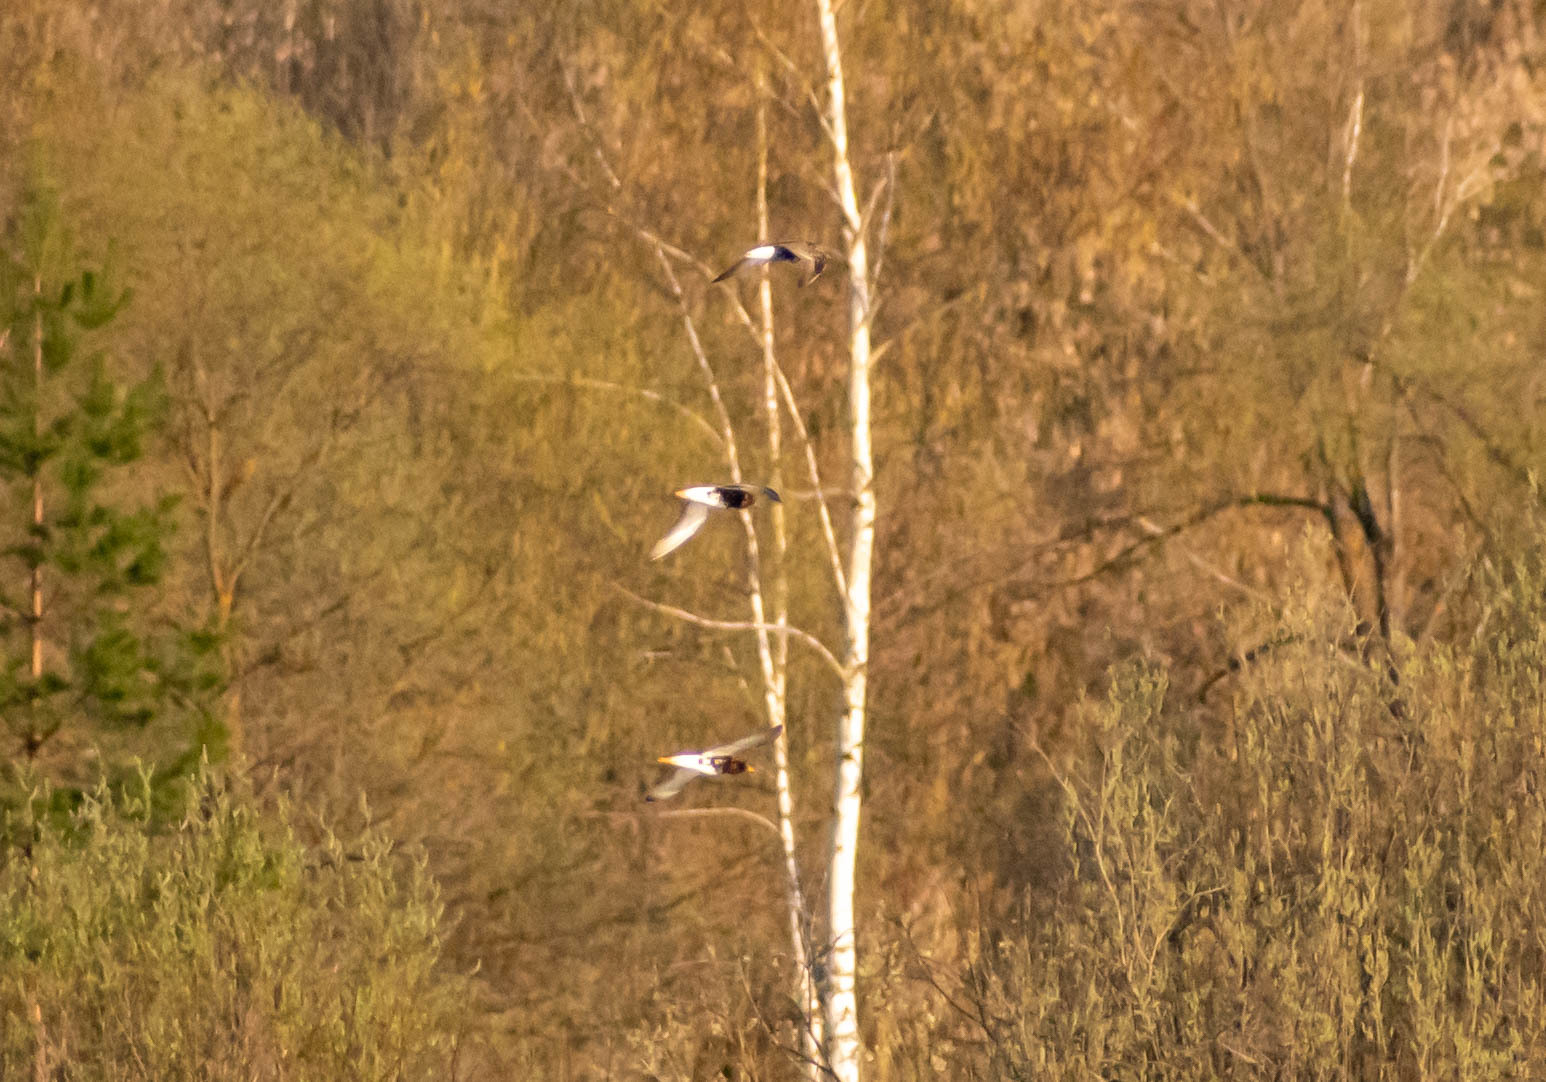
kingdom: Animalia
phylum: Chordata
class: Aves
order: Charadriiformes
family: Scolopacidae
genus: Calidris
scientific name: Calidris pugnax
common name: Ruff
